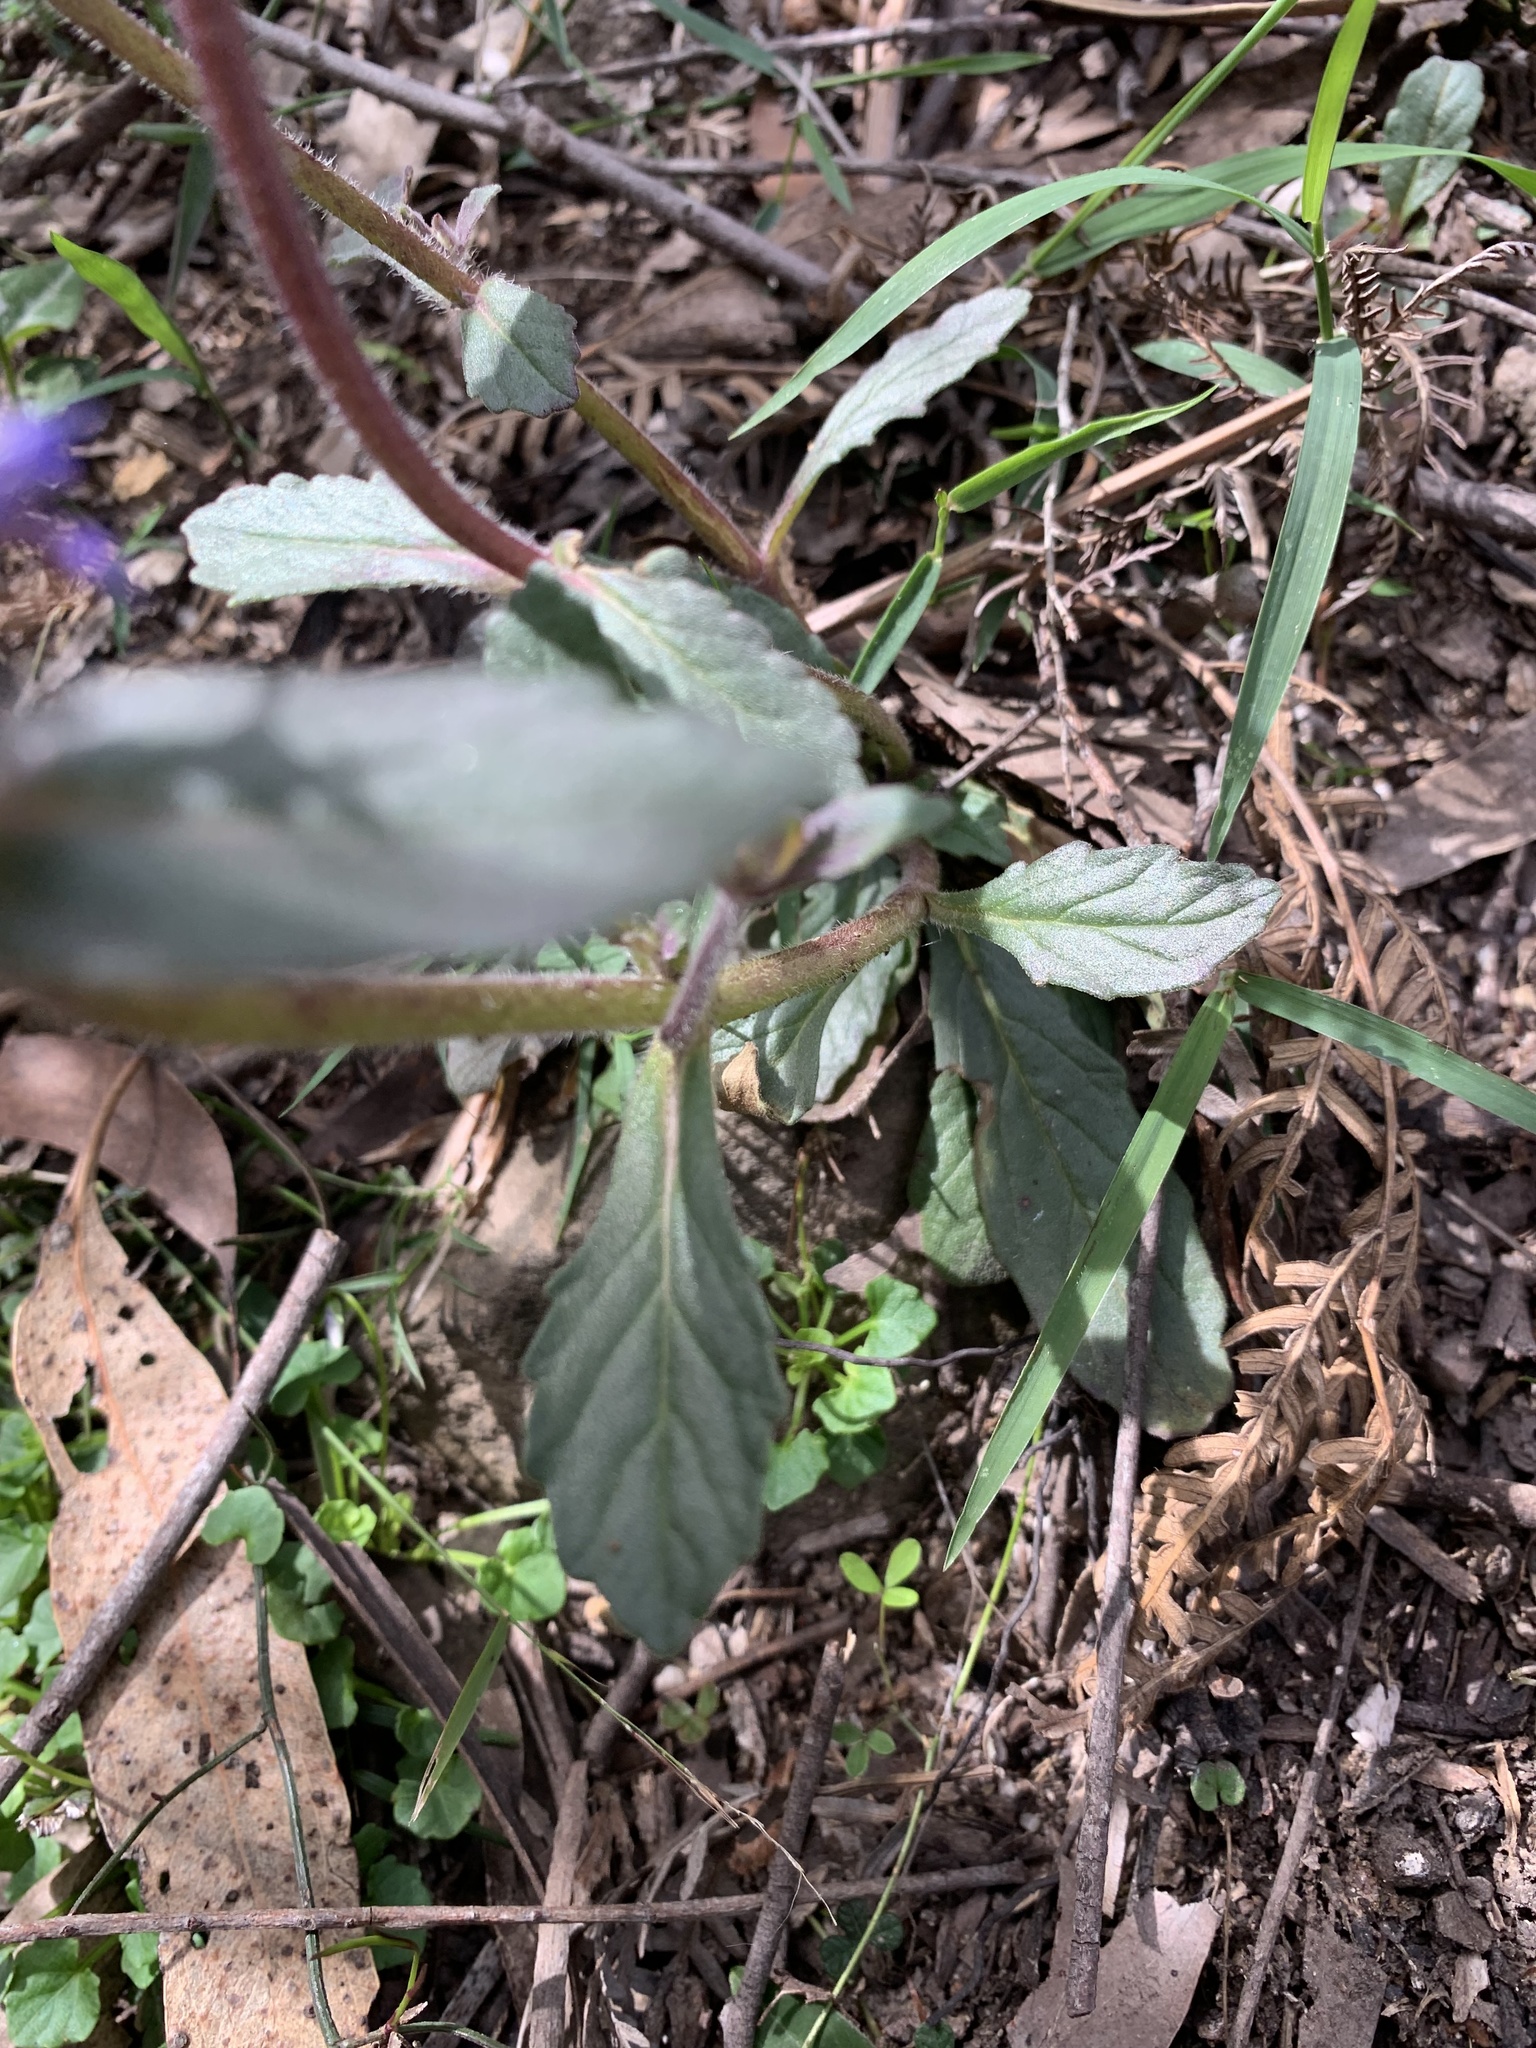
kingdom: Plantae
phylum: Tracheophyta
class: Magnoliopsida
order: Lamiales
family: Lamiaceae
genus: Ajuga
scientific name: Ajuga australis
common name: Australian bugle
